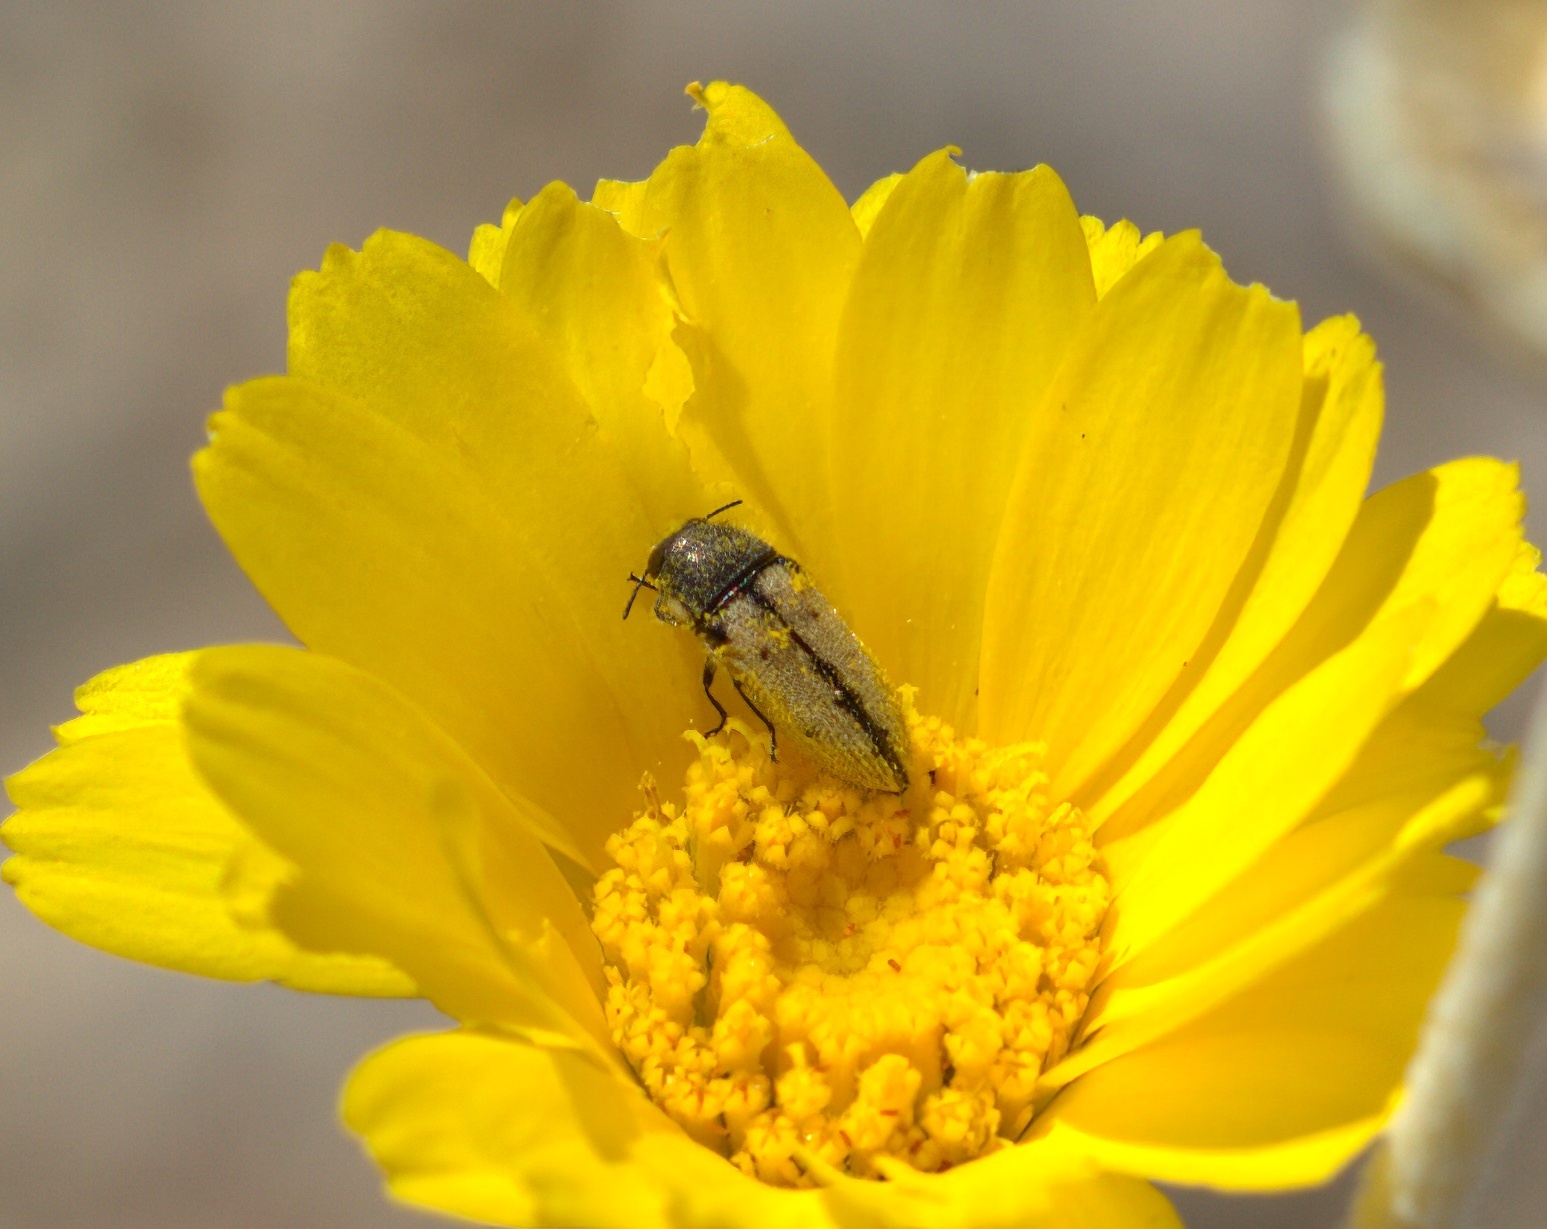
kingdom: Animalia
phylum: Arthropoda
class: Insecta
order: Coleoptera
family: Buprestidae
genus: Acmaeodera
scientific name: Acmaeodera immaculata
